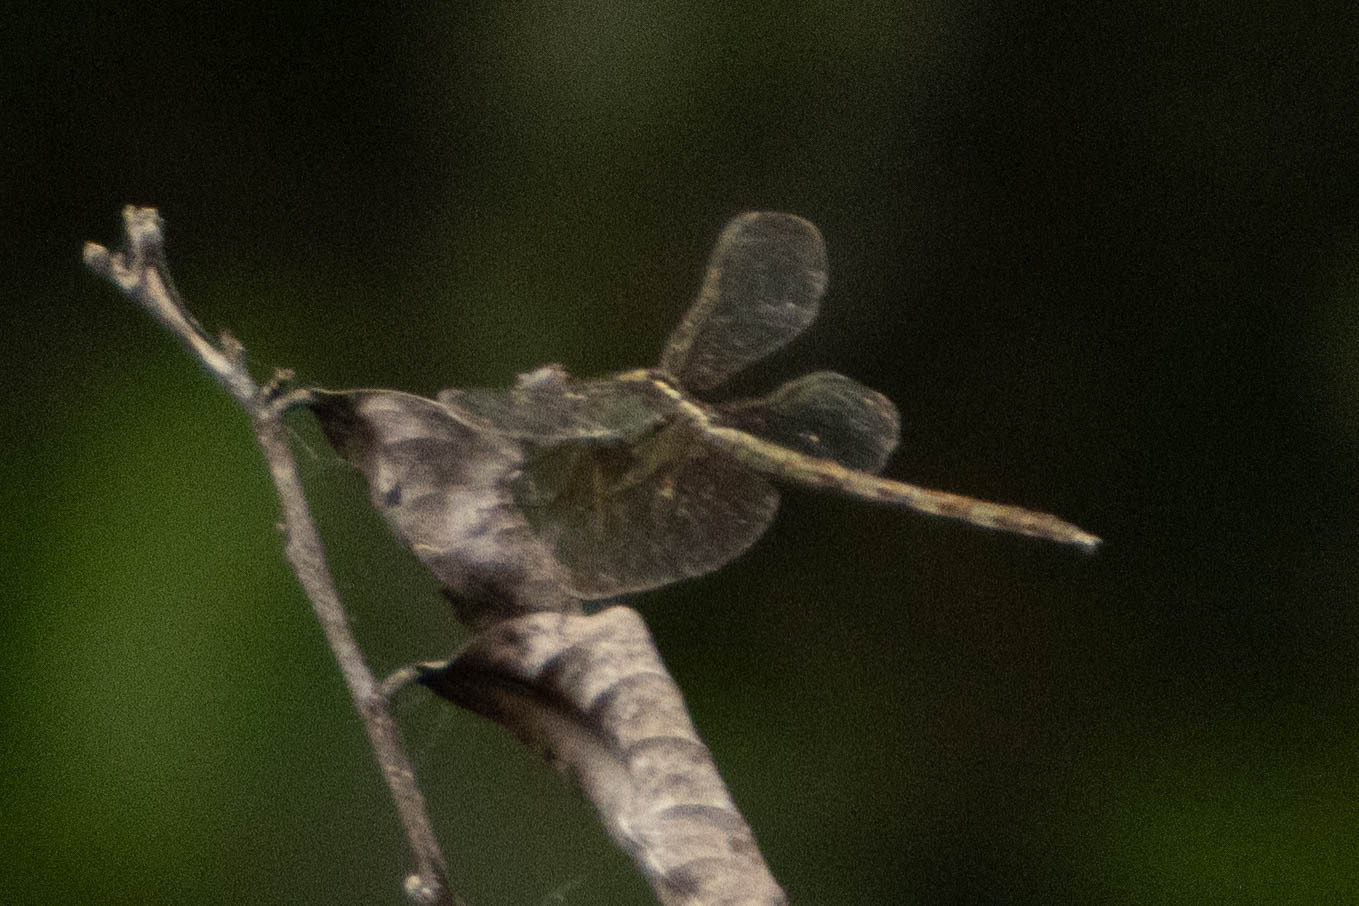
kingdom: Animalia
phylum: Arthropoda
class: Insecta
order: Odonata
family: Libellulidae
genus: Erythrodiplax
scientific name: Erythrodiplax umbrata
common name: Band-winged dragonlet
